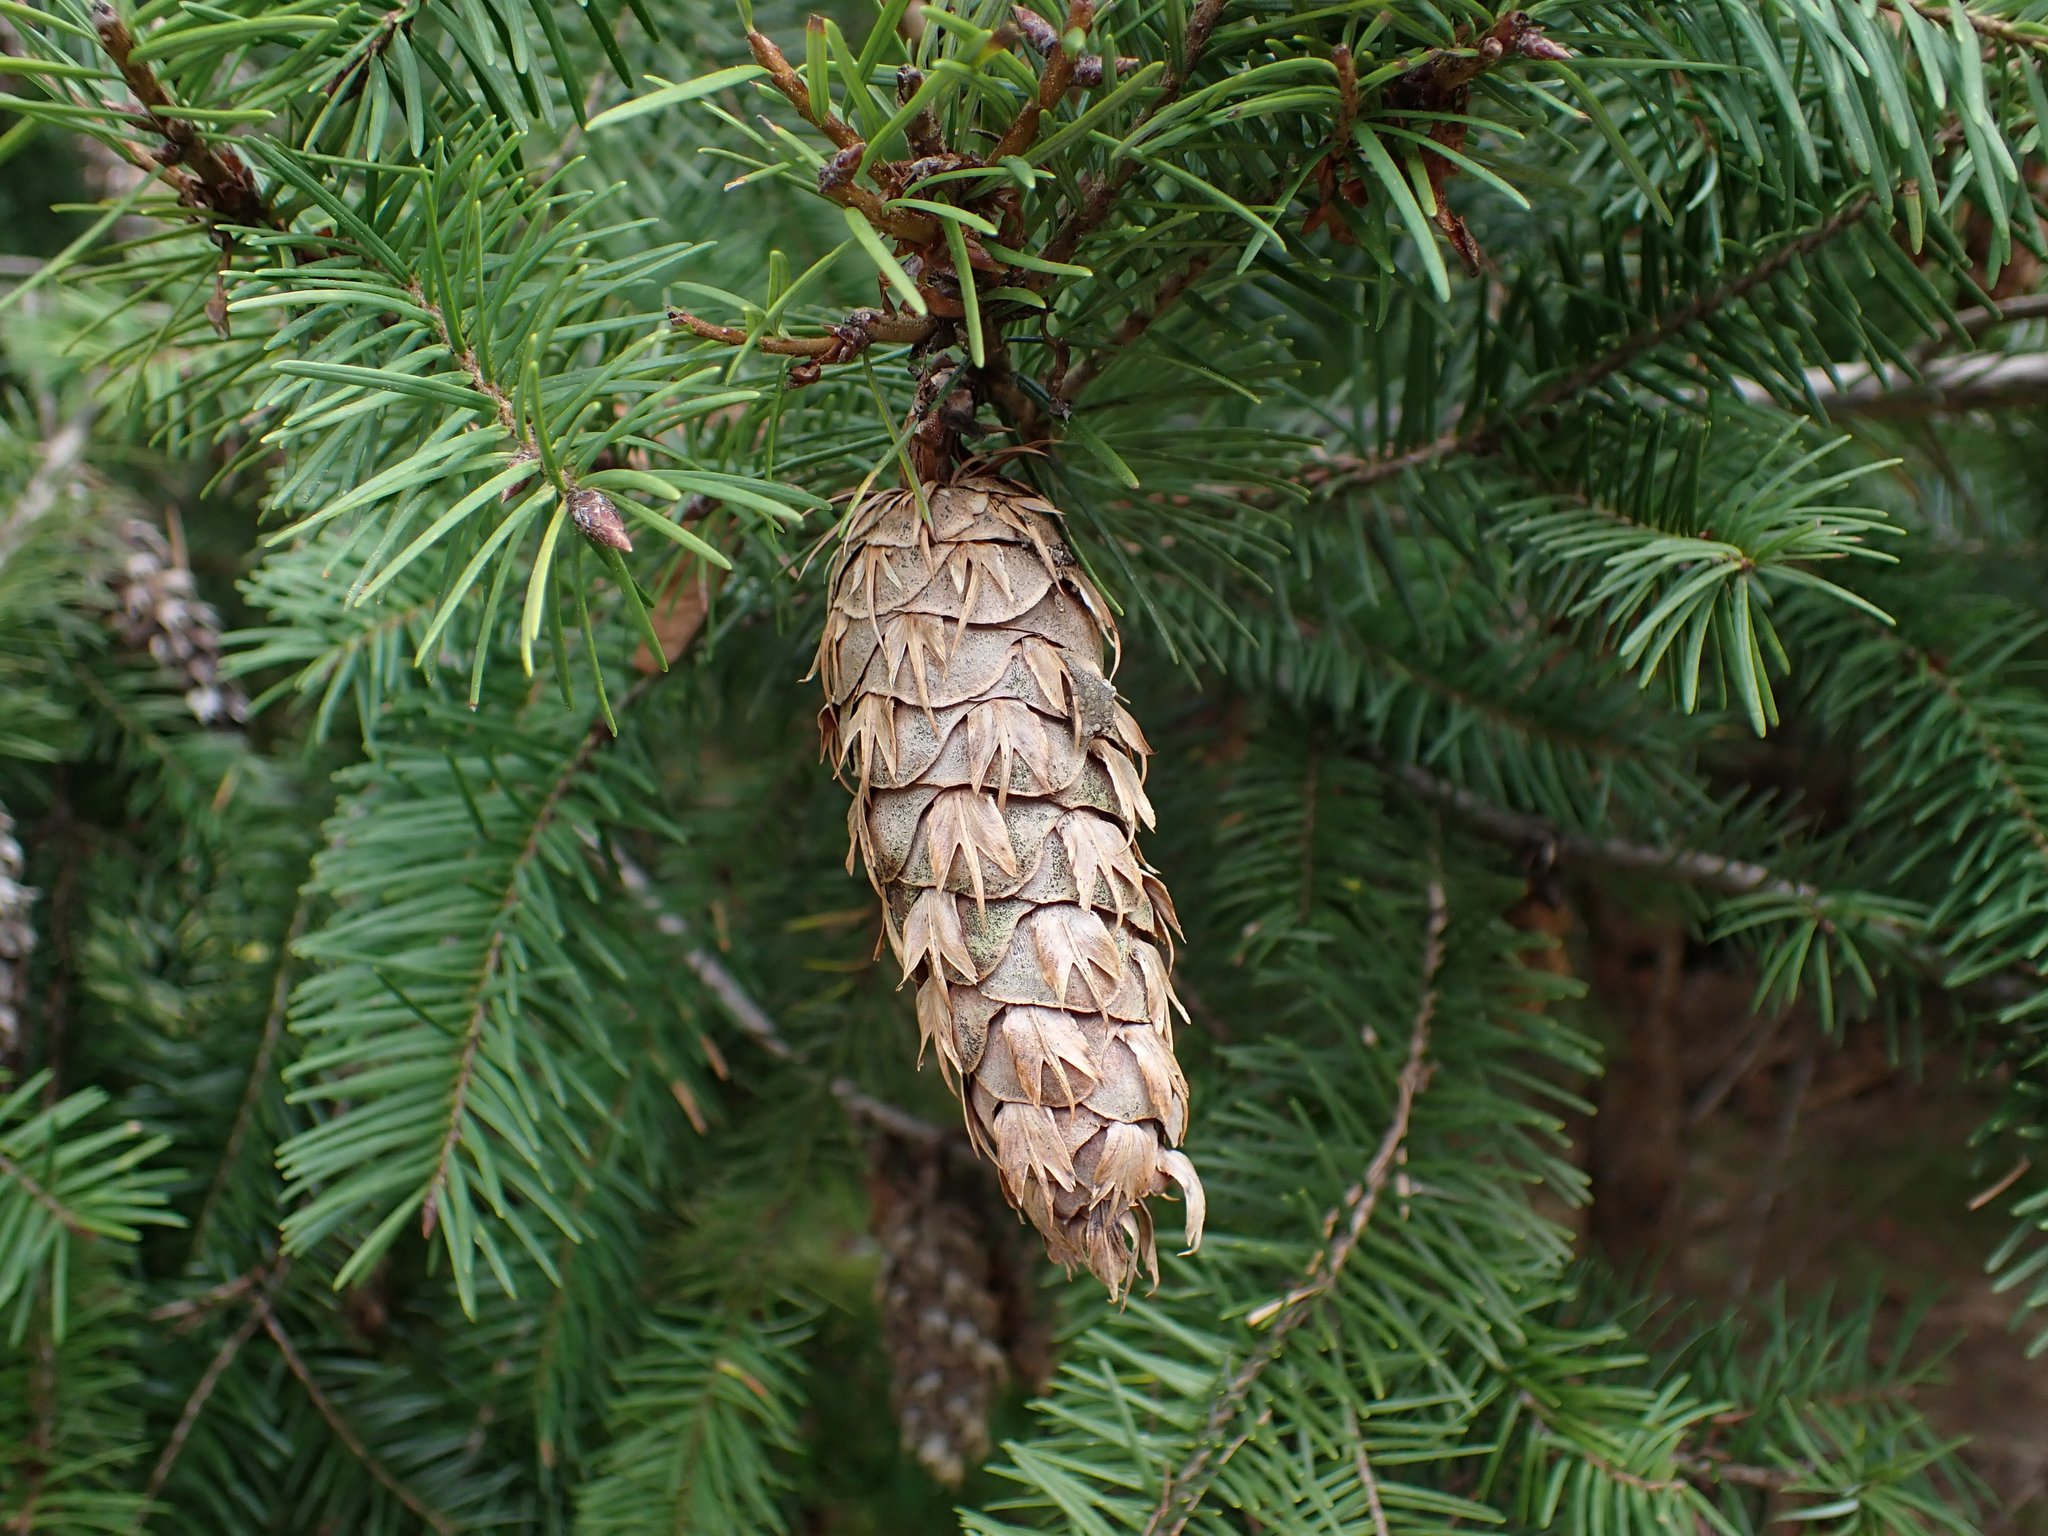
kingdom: Plantae
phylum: Tracheophyta
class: Pinopsida
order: Pinales
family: Pinaceae
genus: Pseudotsuga
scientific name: Pseudotsuga menziesii
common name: Douglas fir
